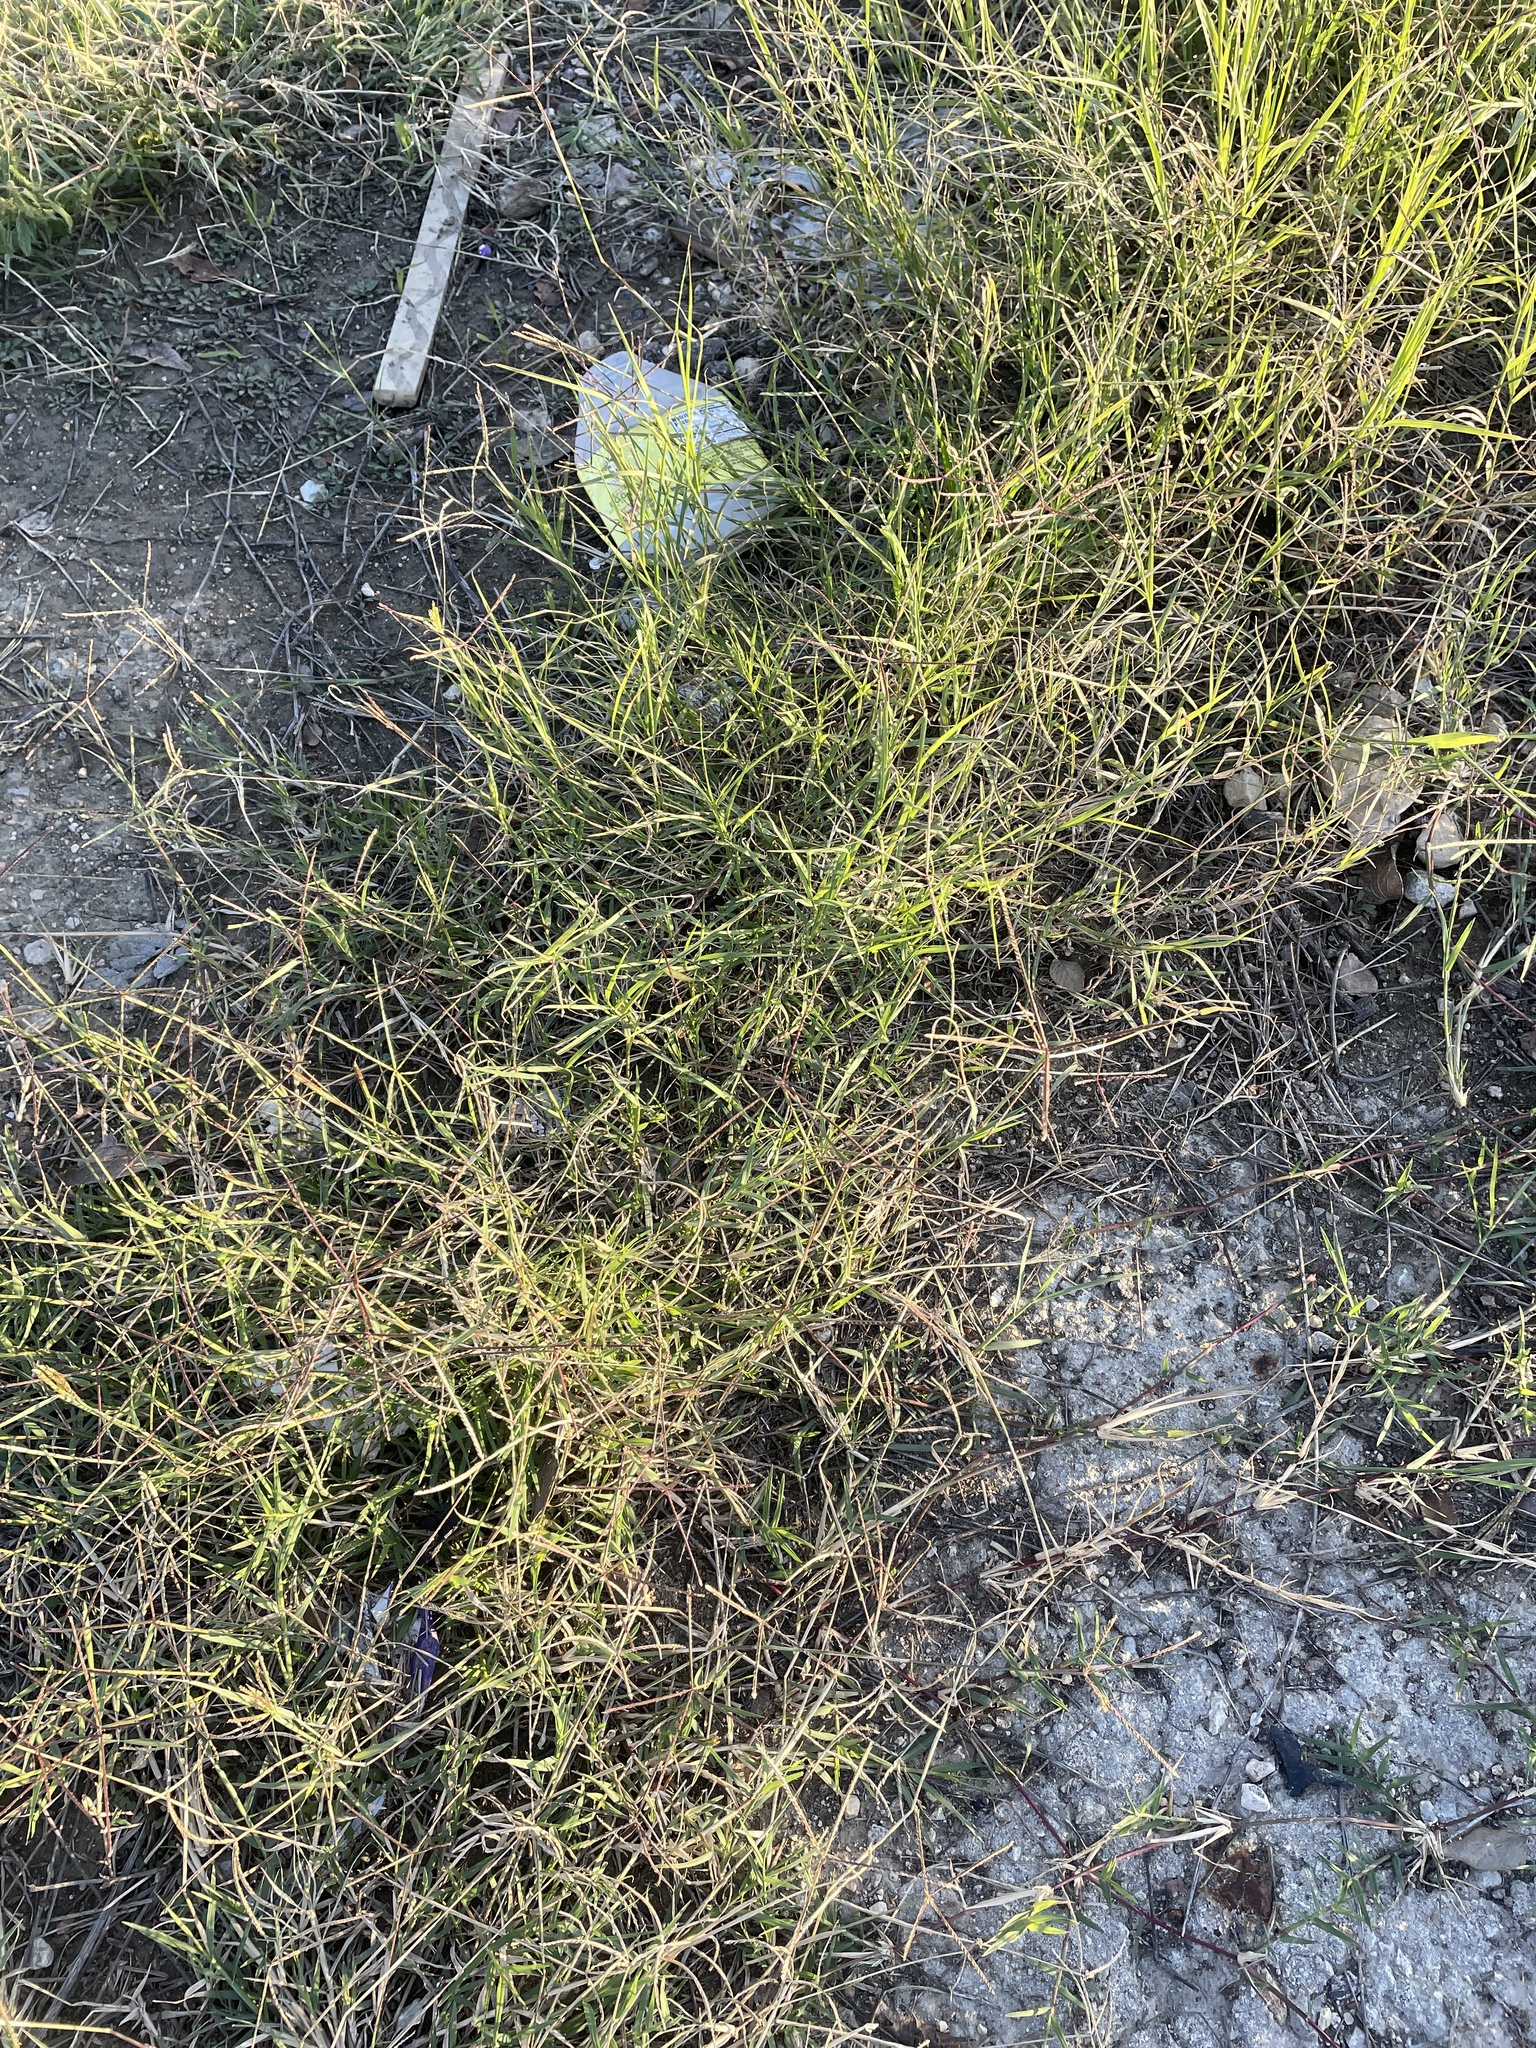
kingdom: Plantae
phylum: Tracheophyta
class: Liliopsida
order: Poales
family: Poaceae
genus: Cynodon
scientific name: Cynodon dactylon
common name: Bermuda grass
